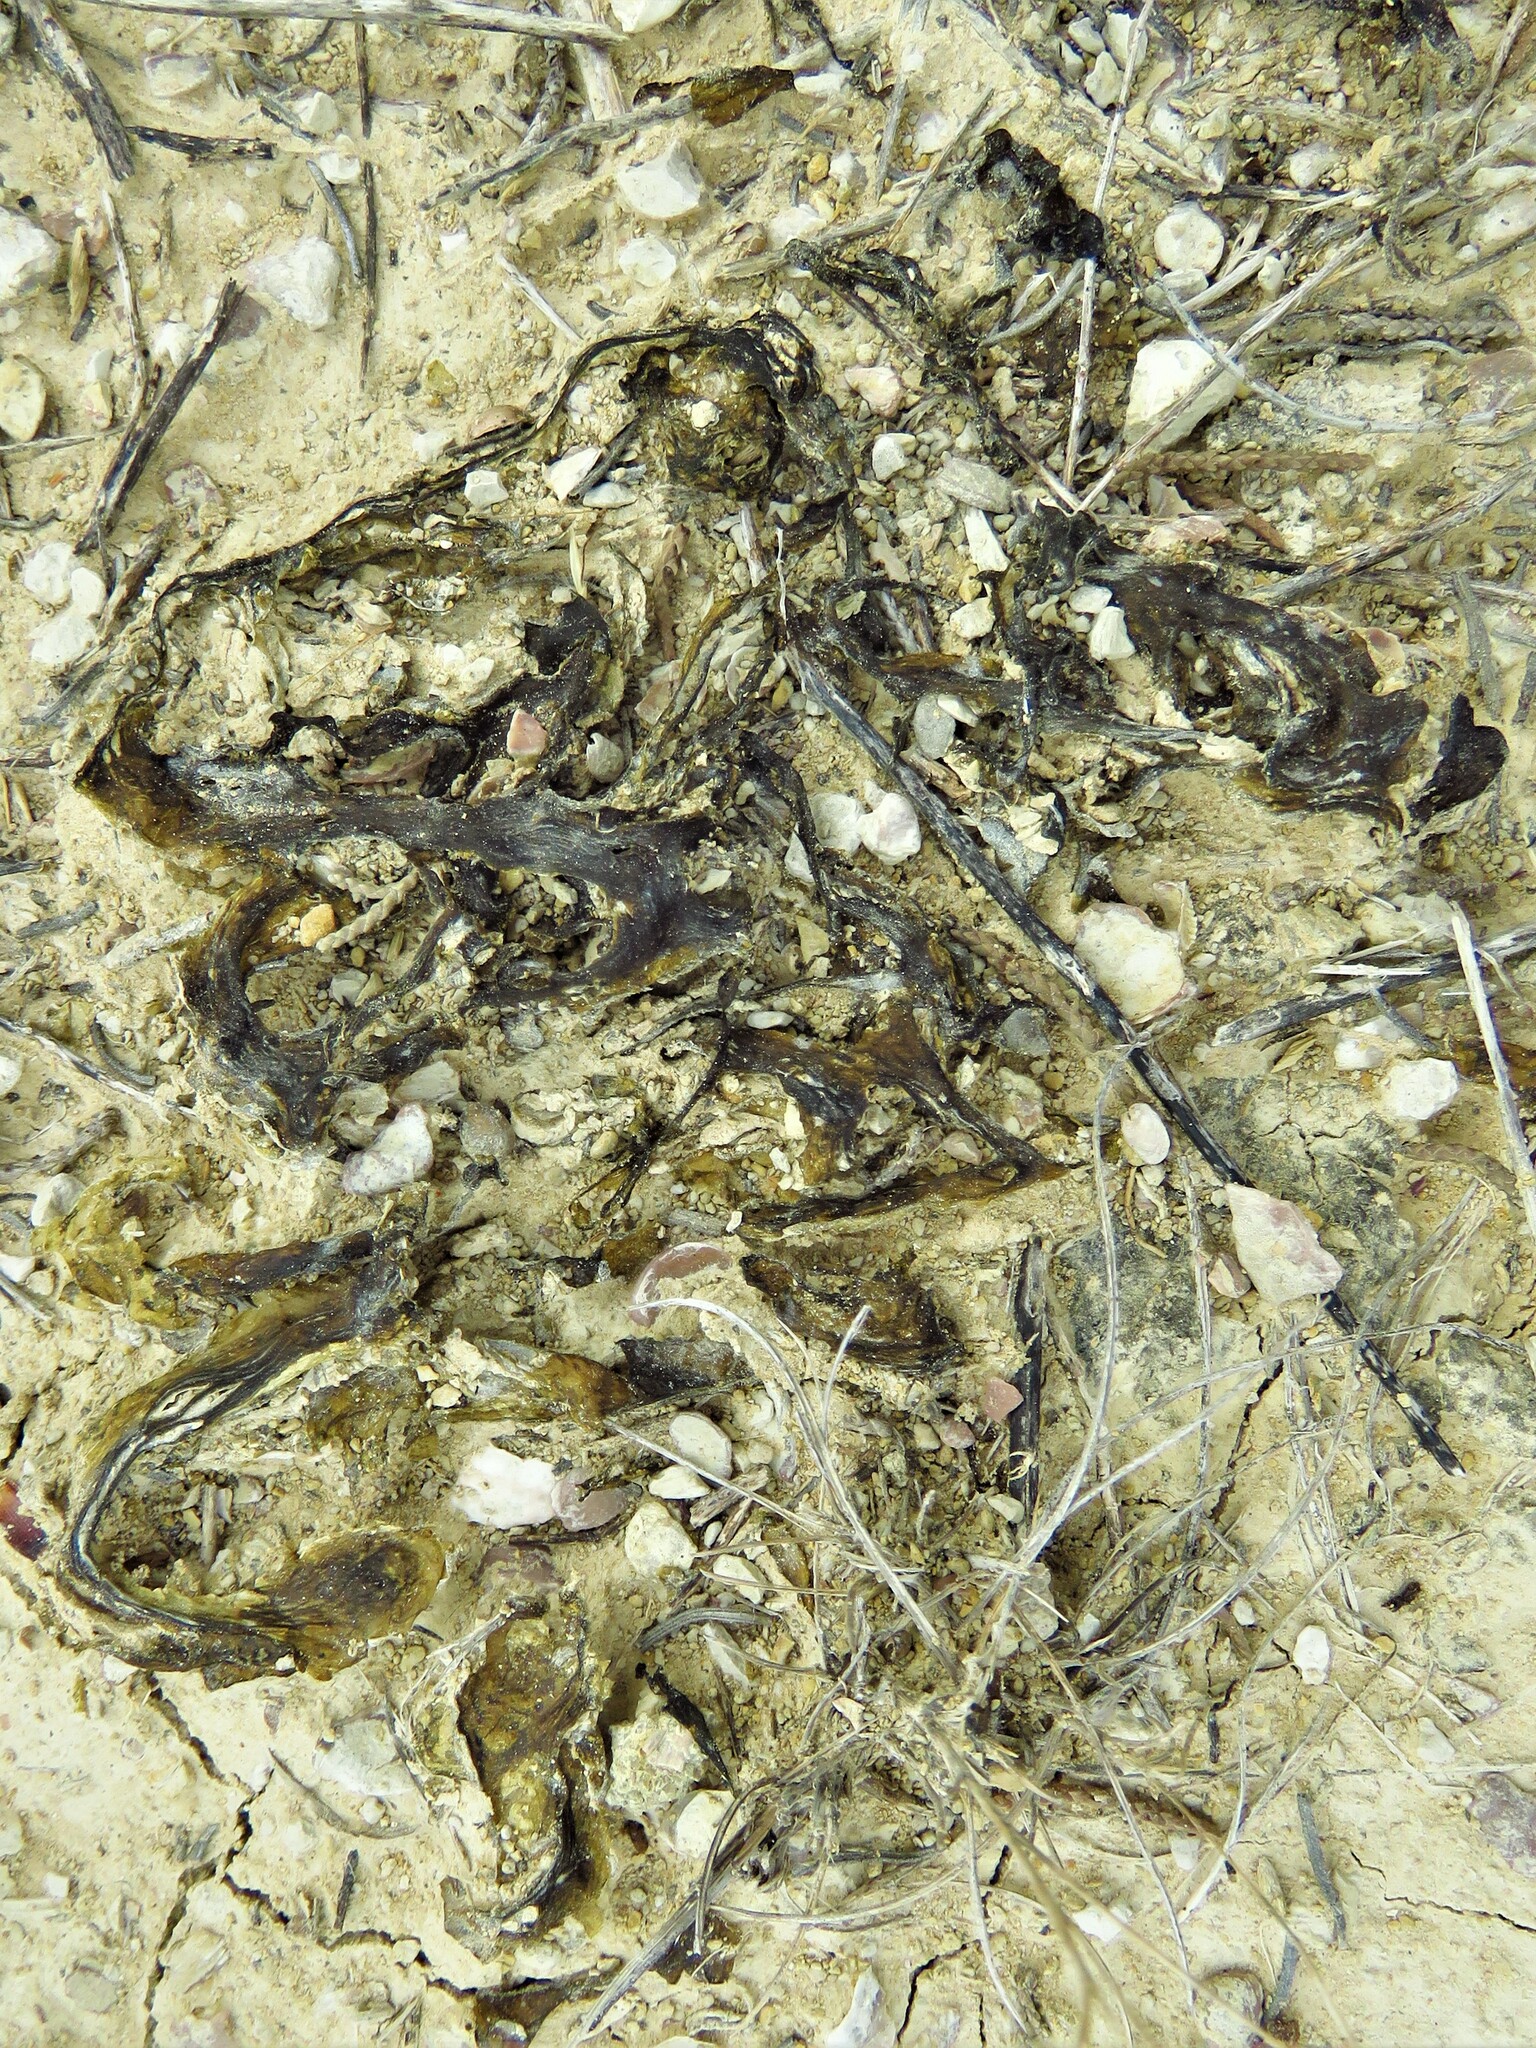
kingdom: Bacteria
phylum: Cyanobacteria
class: Cyanobacteriia
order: Cyanobacteriales
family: Nostocaceae
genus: Nostoc
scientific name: Nostoc commune
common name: Star jelly
